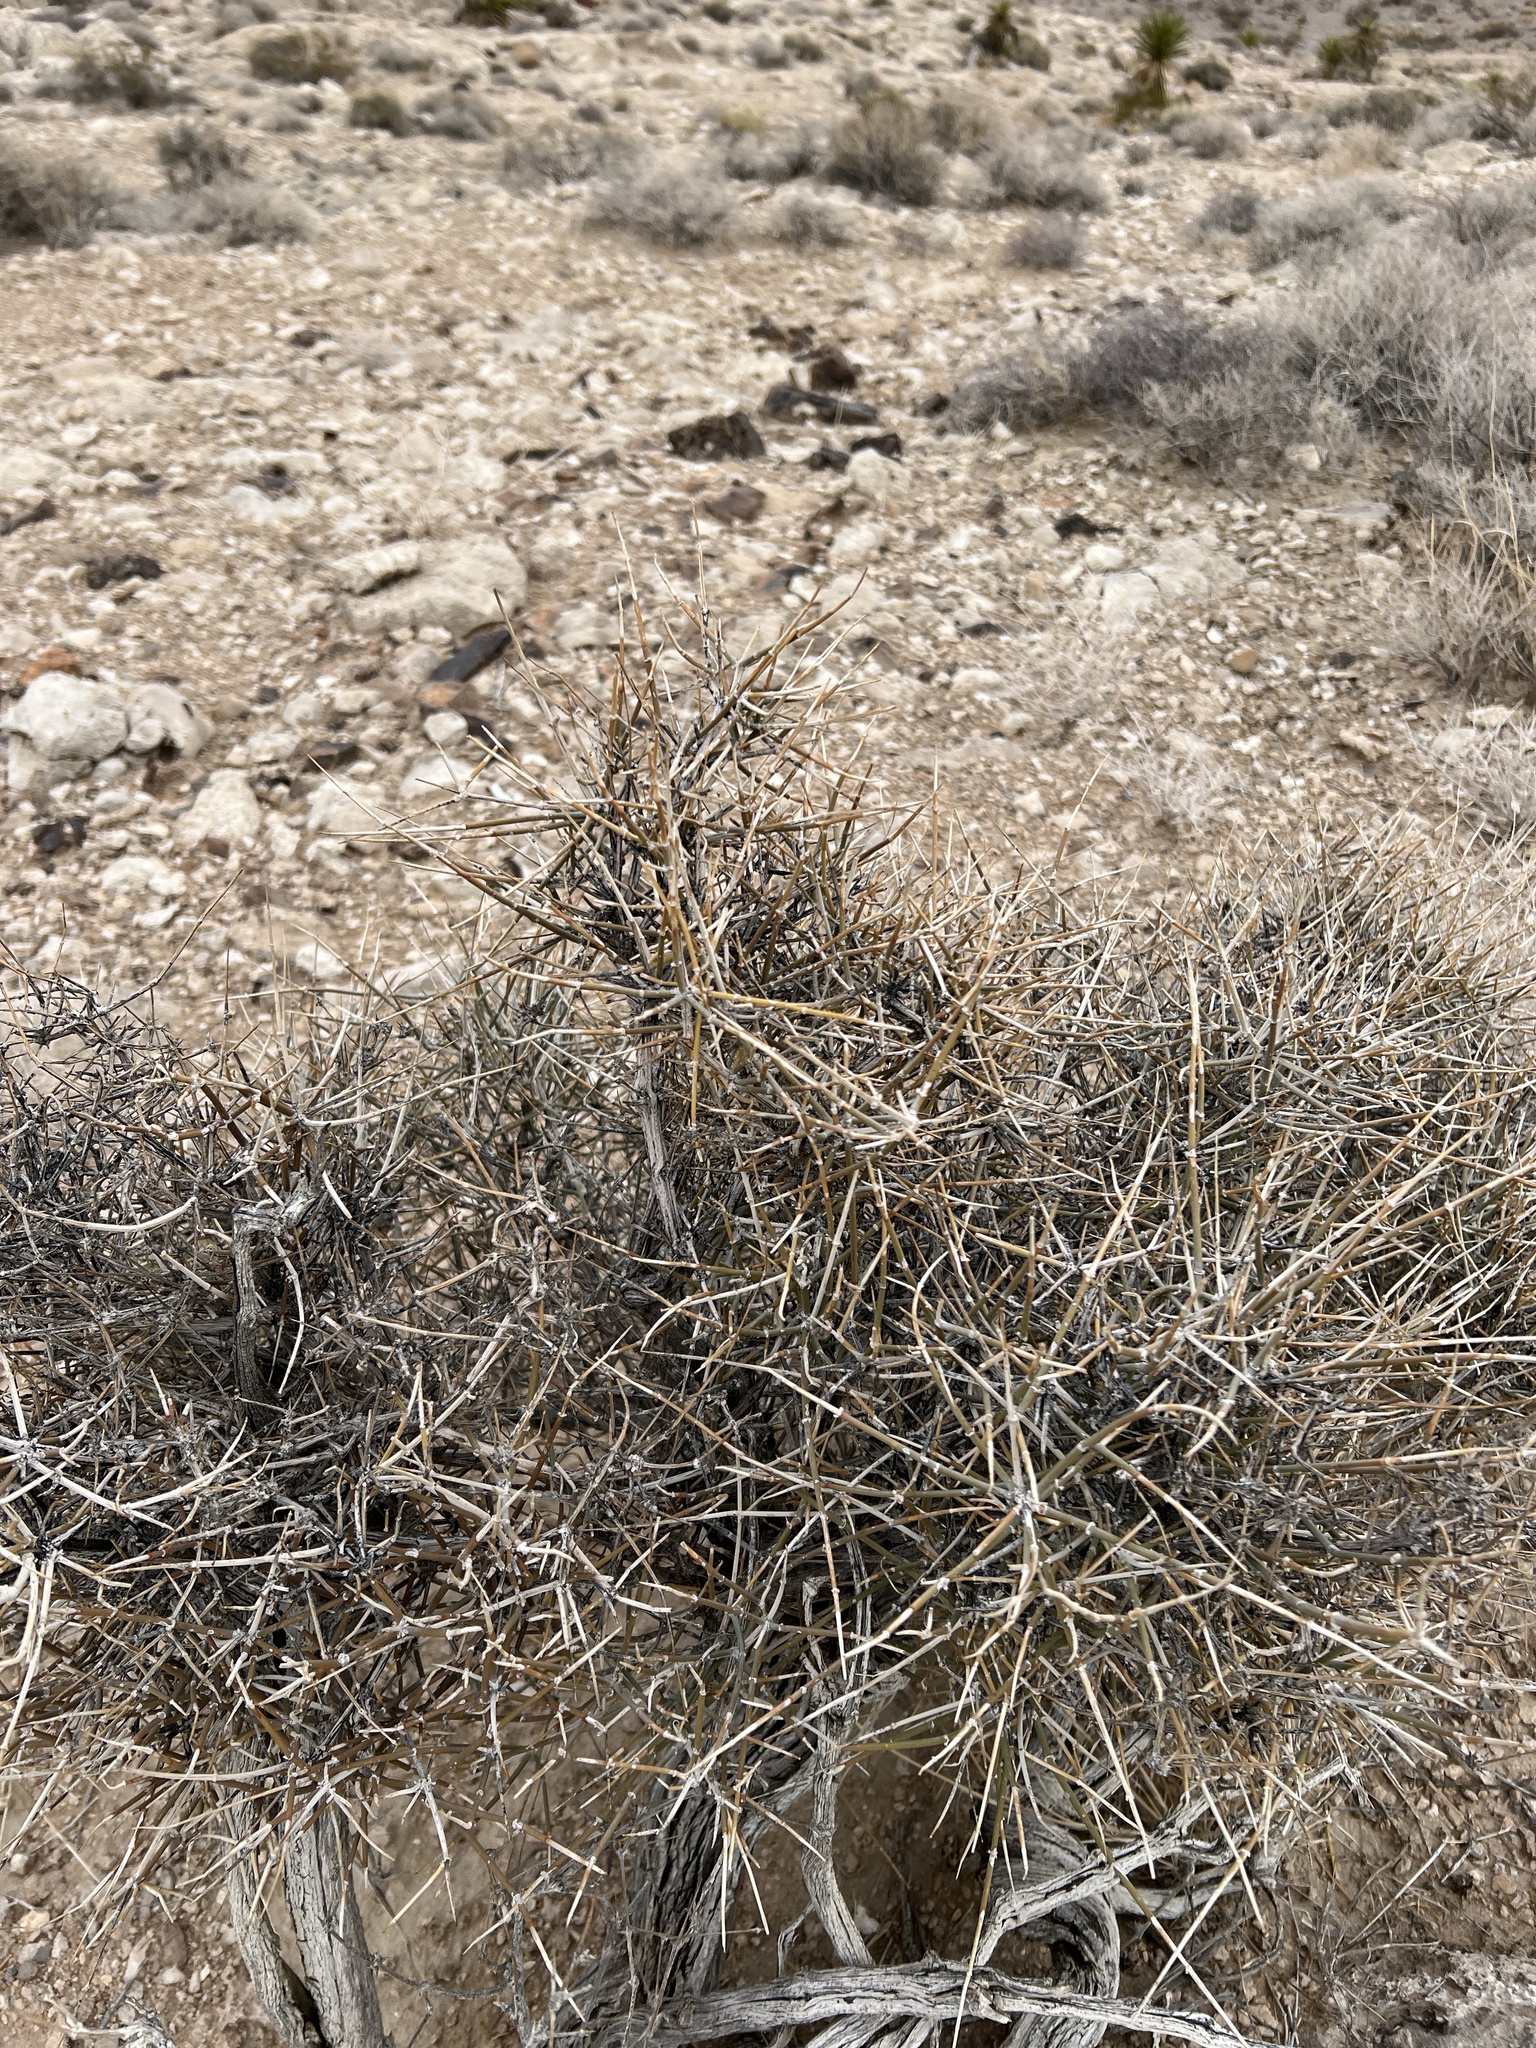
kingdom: Plantae
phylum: Tracheophyta
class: Gnetopsida
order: Ephedrales
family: Ephedraceae
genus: Ephedra
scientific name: Ephedra nevadensis
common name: Gray ephedra
